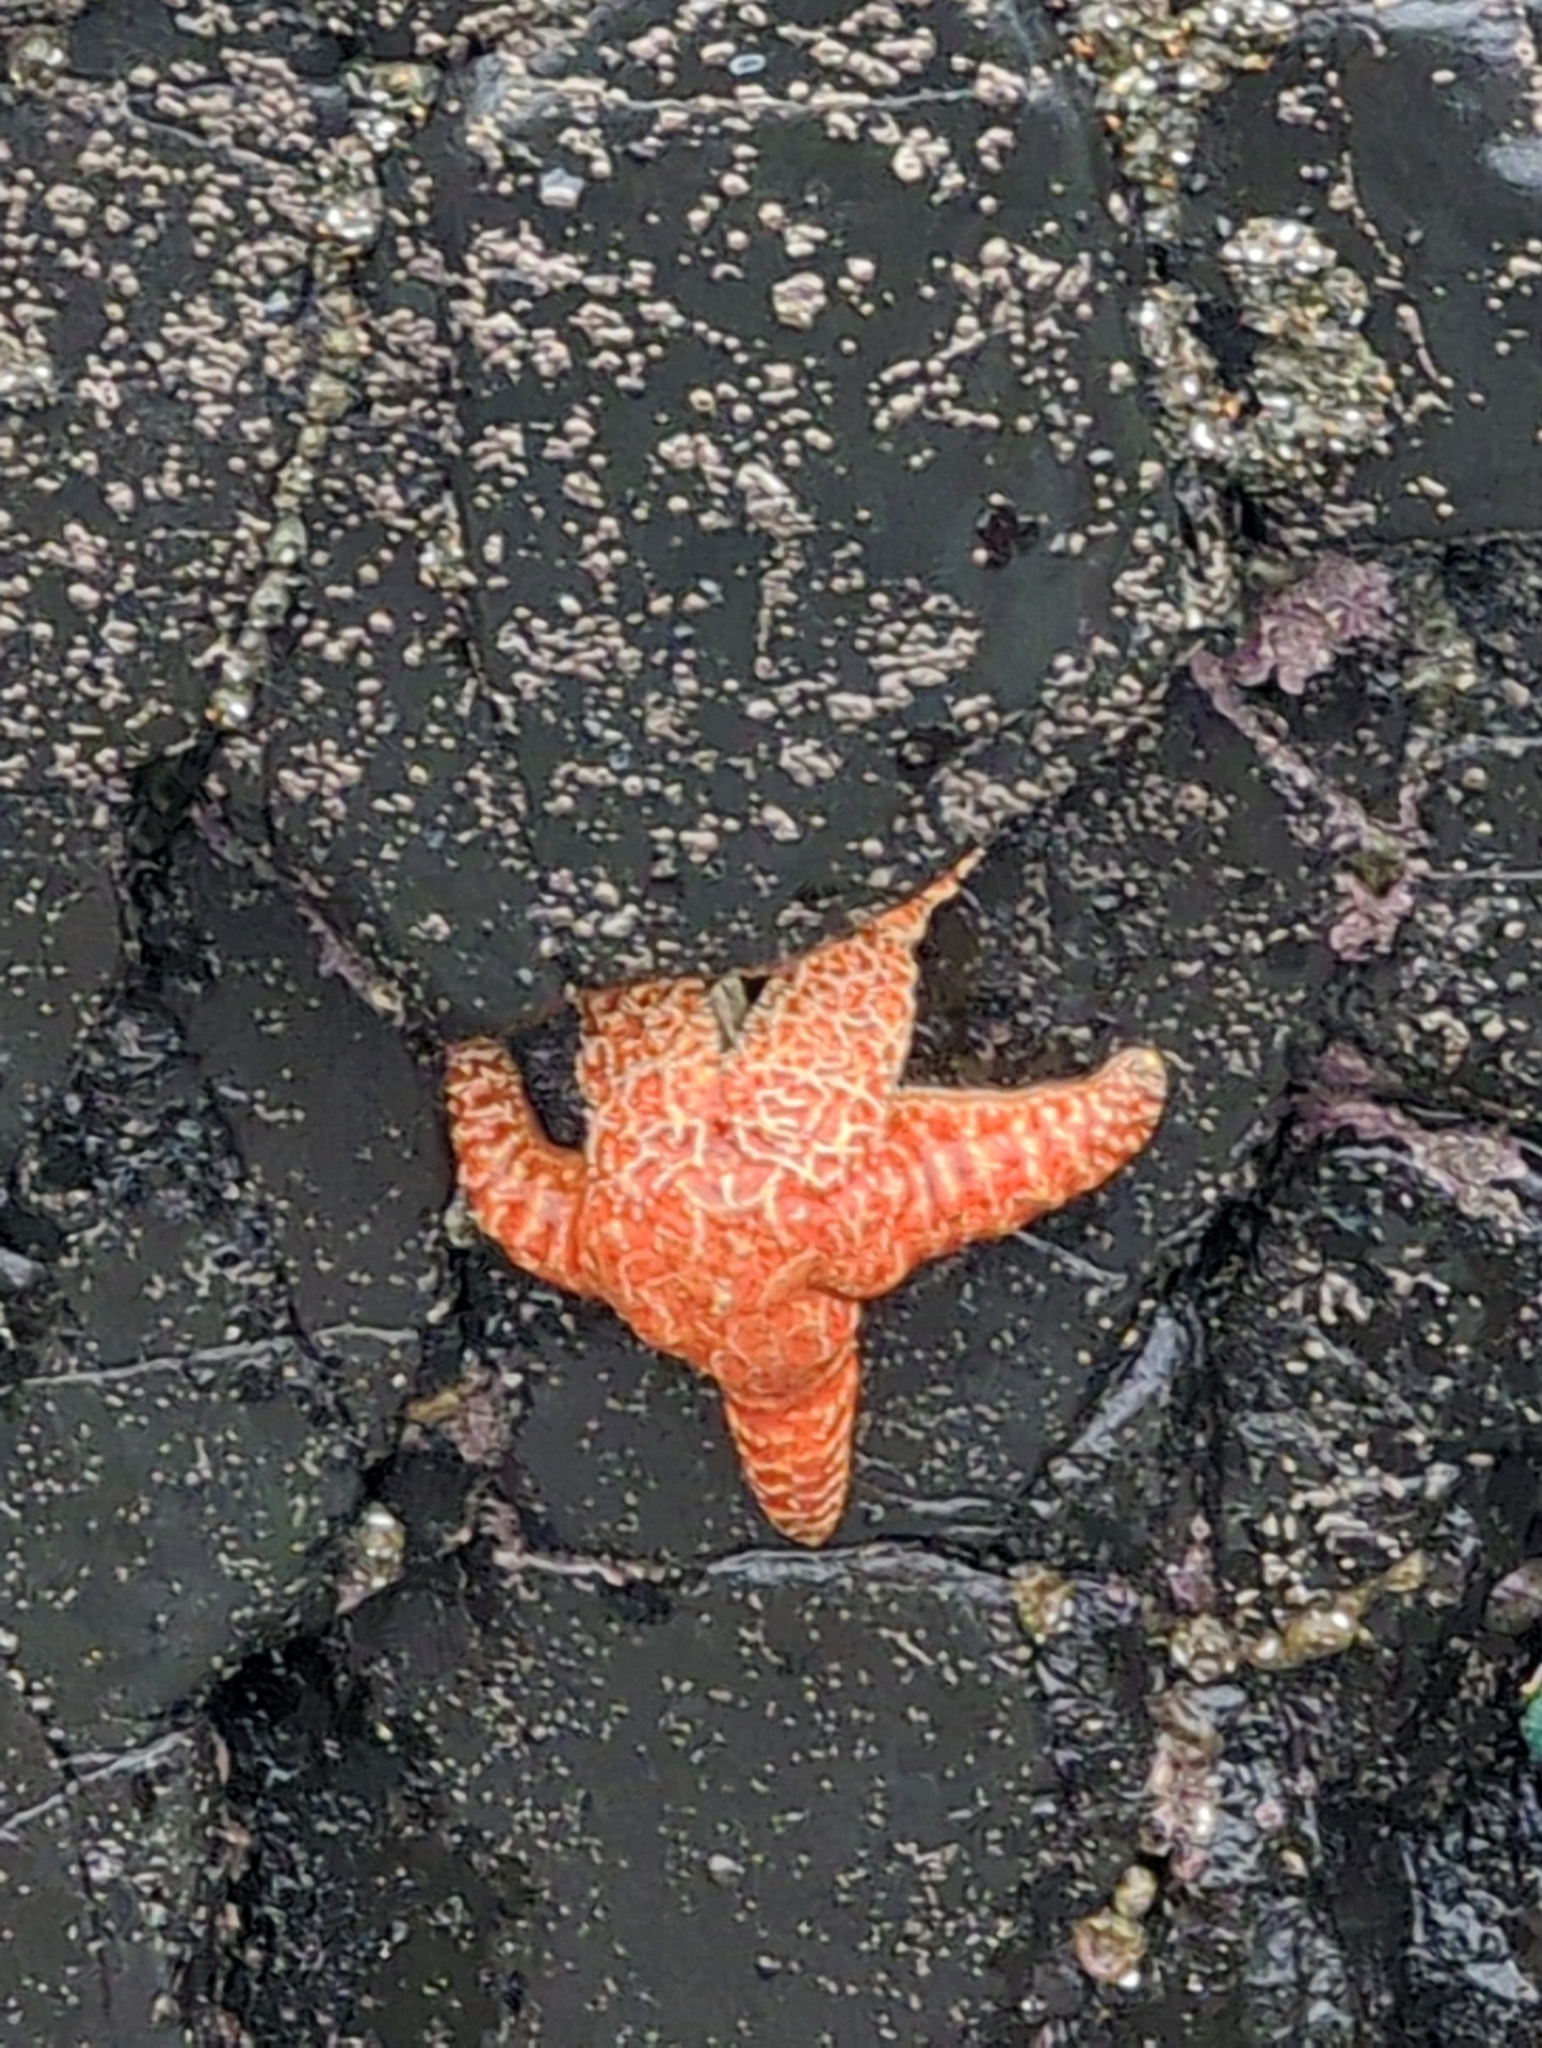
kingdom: Animalia
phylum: Echinodermata
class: Asteroidea
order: Forcipulatida
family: Asteriidae
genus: Pisaster
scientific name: Pisaster ochraceus
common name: Ochre stars
